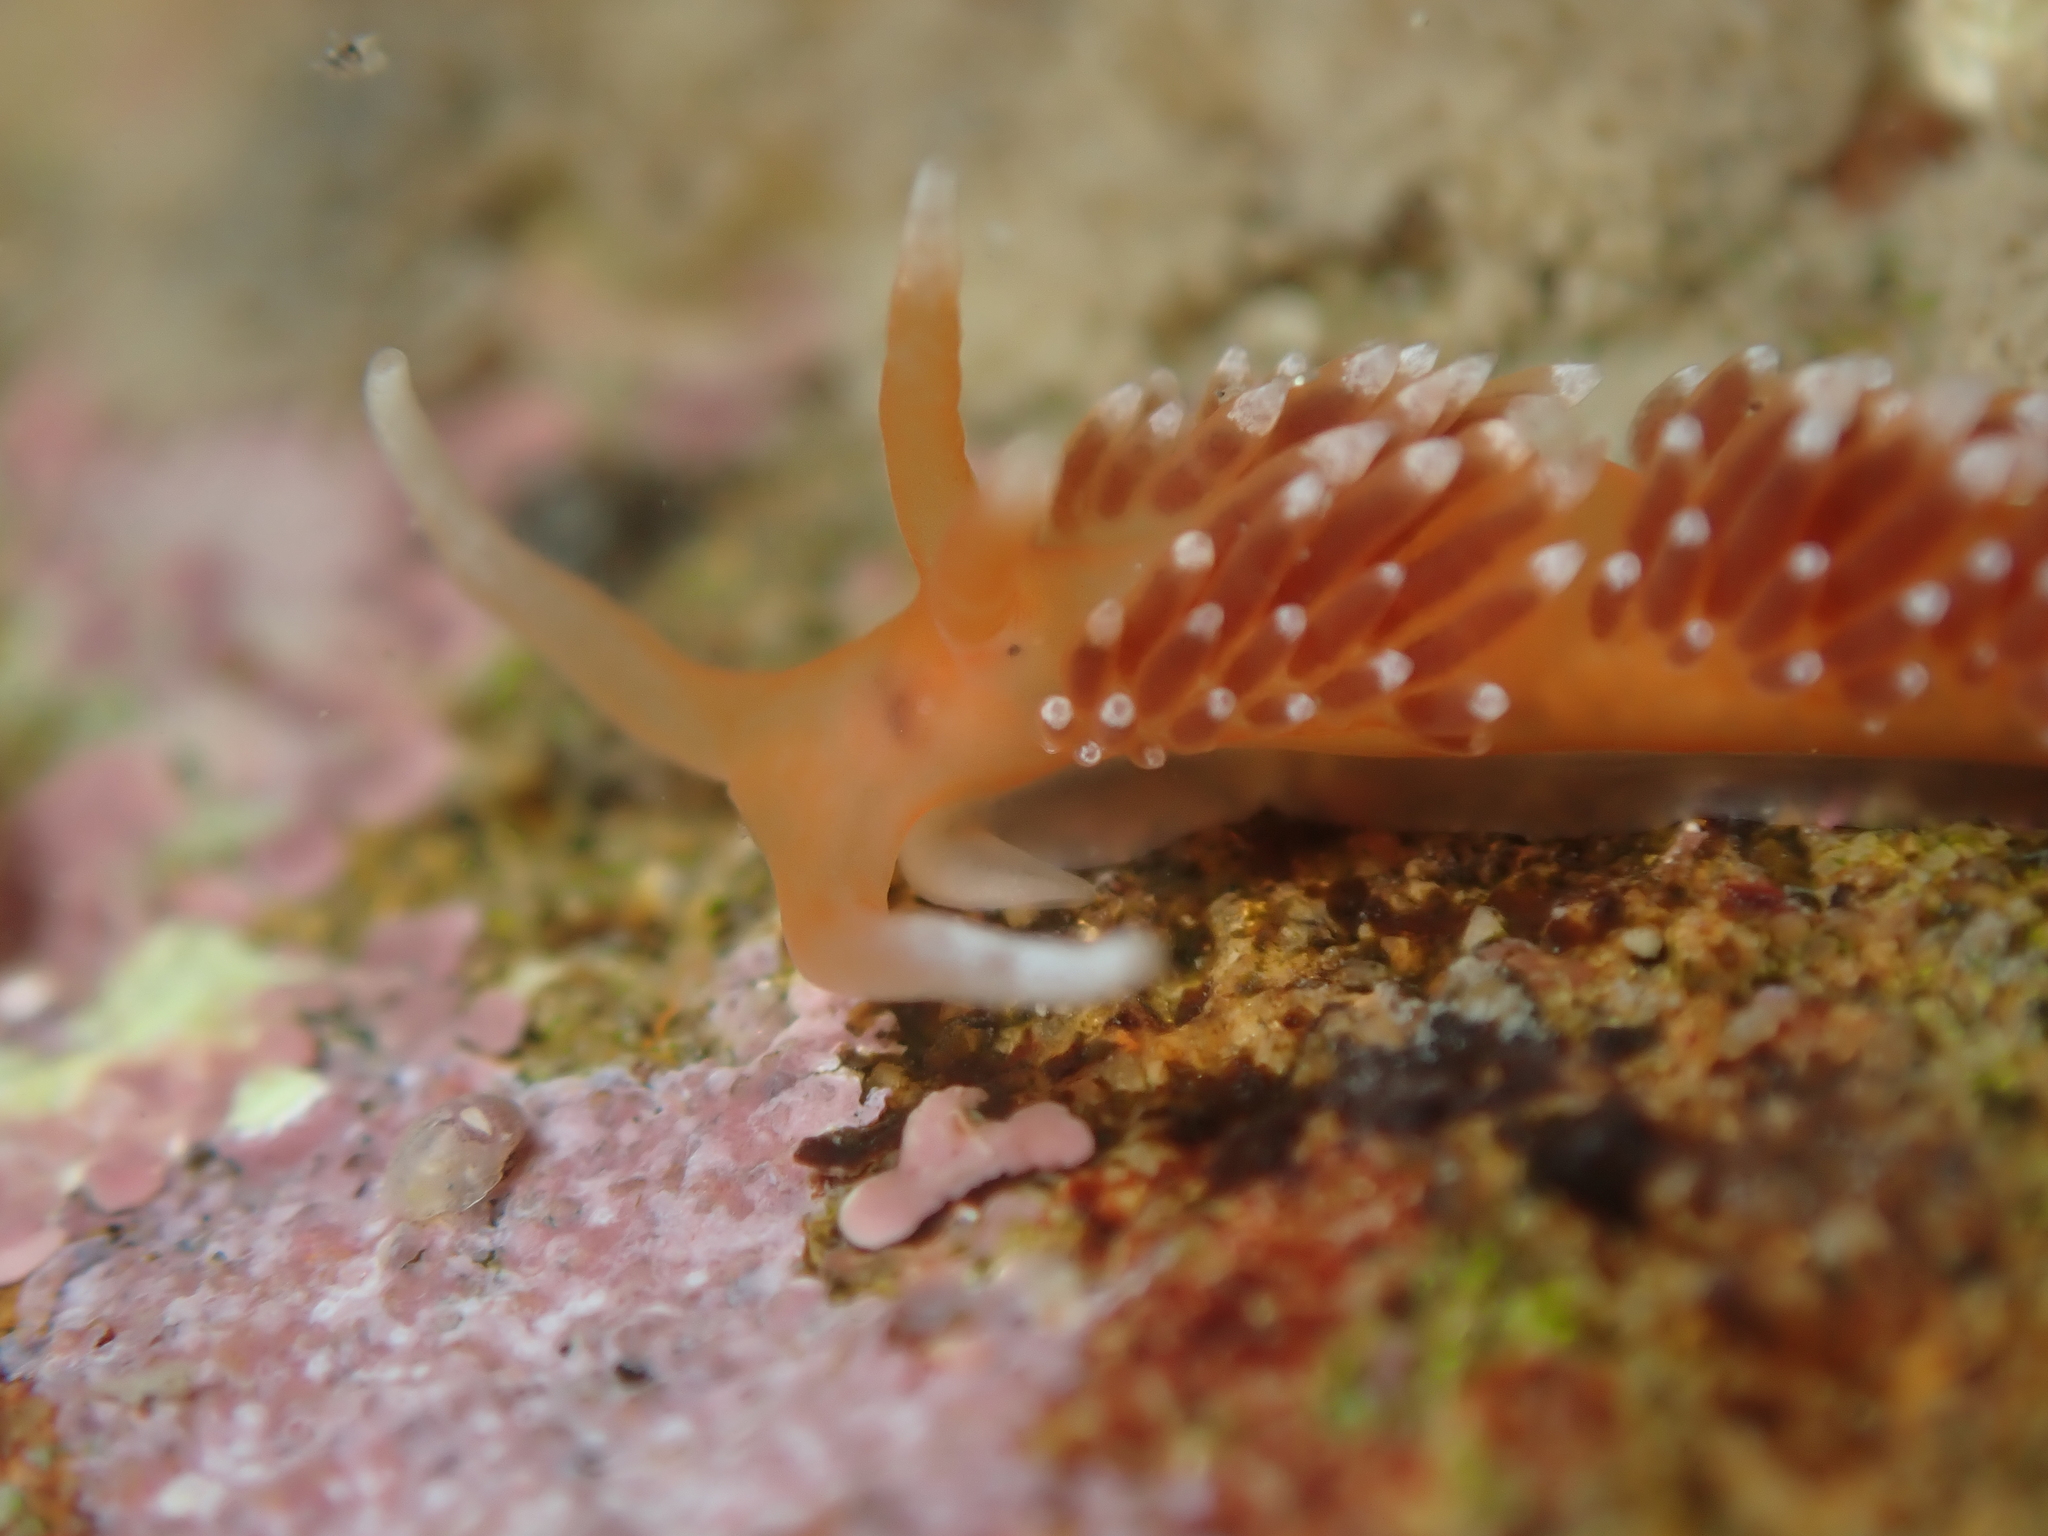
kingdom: Animalia
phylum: Mollusca
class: Gastropoda
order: Nudibranchia
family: Facelinidae
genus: Phidiana
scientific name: Phidiana milleri
